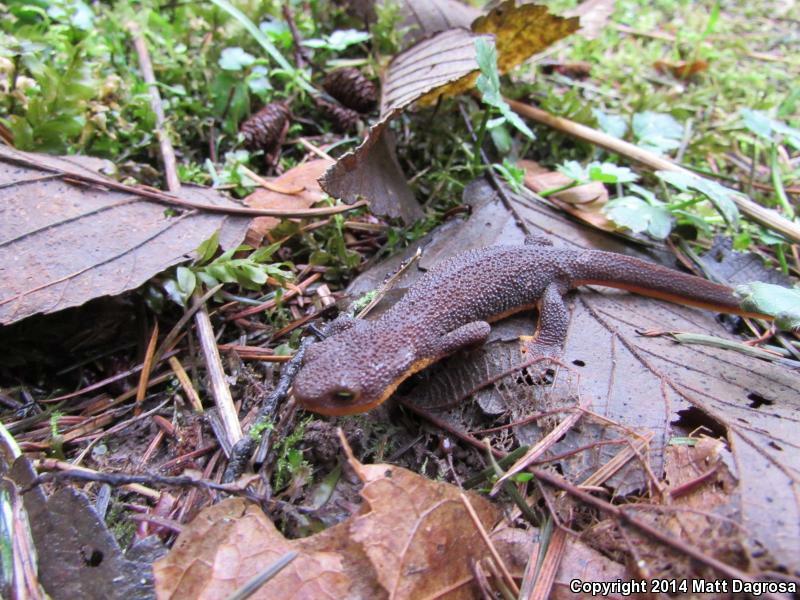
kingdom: Animalia
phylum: Chordata
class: Amphibia
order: Caudata
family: Salamandridae
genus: Taricha
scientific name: Taricha granulosa
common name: Roughskin newt
